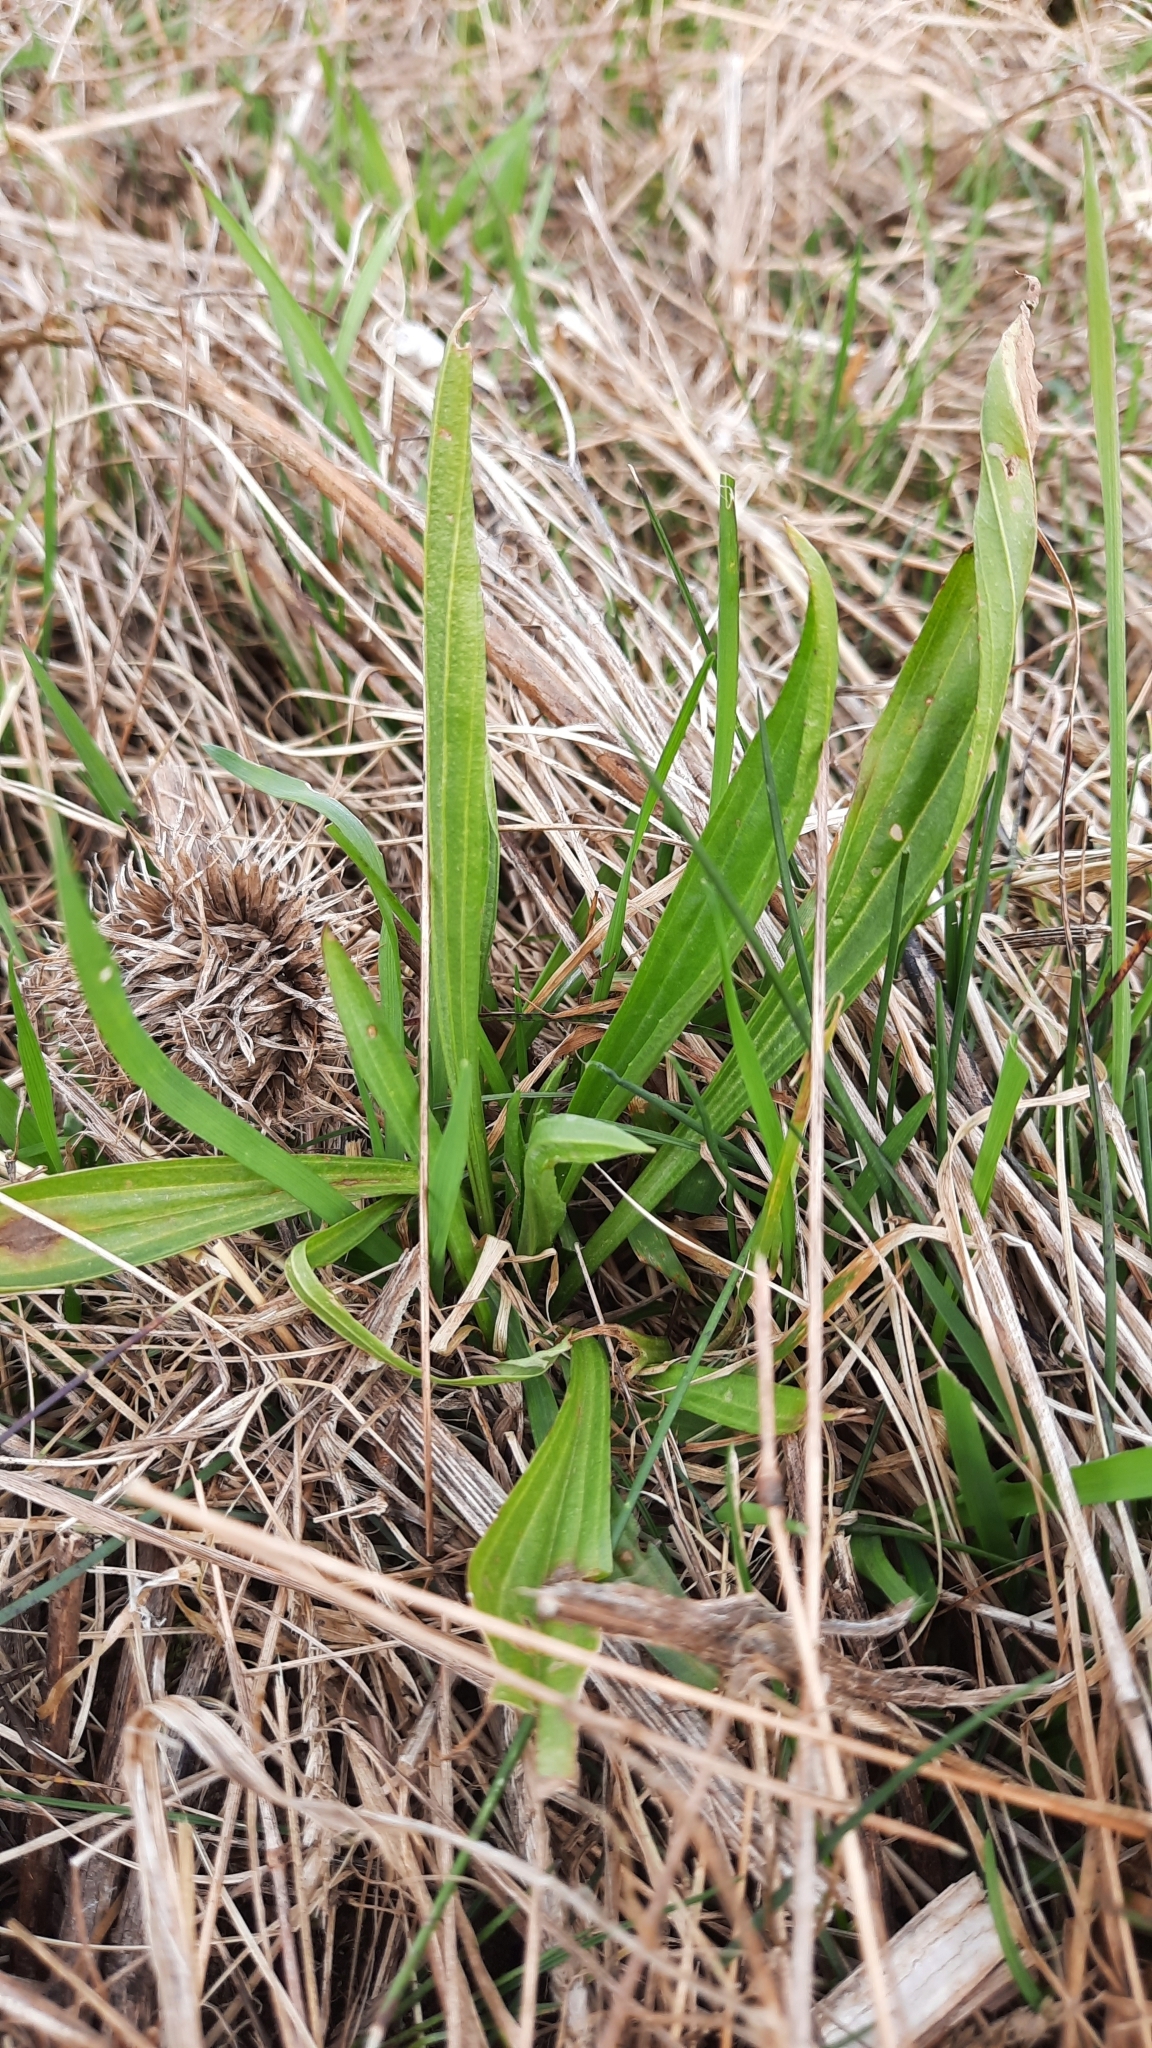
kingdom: Plantae
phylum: Tracheophyta
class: Magnoliopsida
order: Lamiales
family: Plantaginaceae
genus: Plantago
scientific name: Plantago lanceolata
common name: Ribwort plantain
